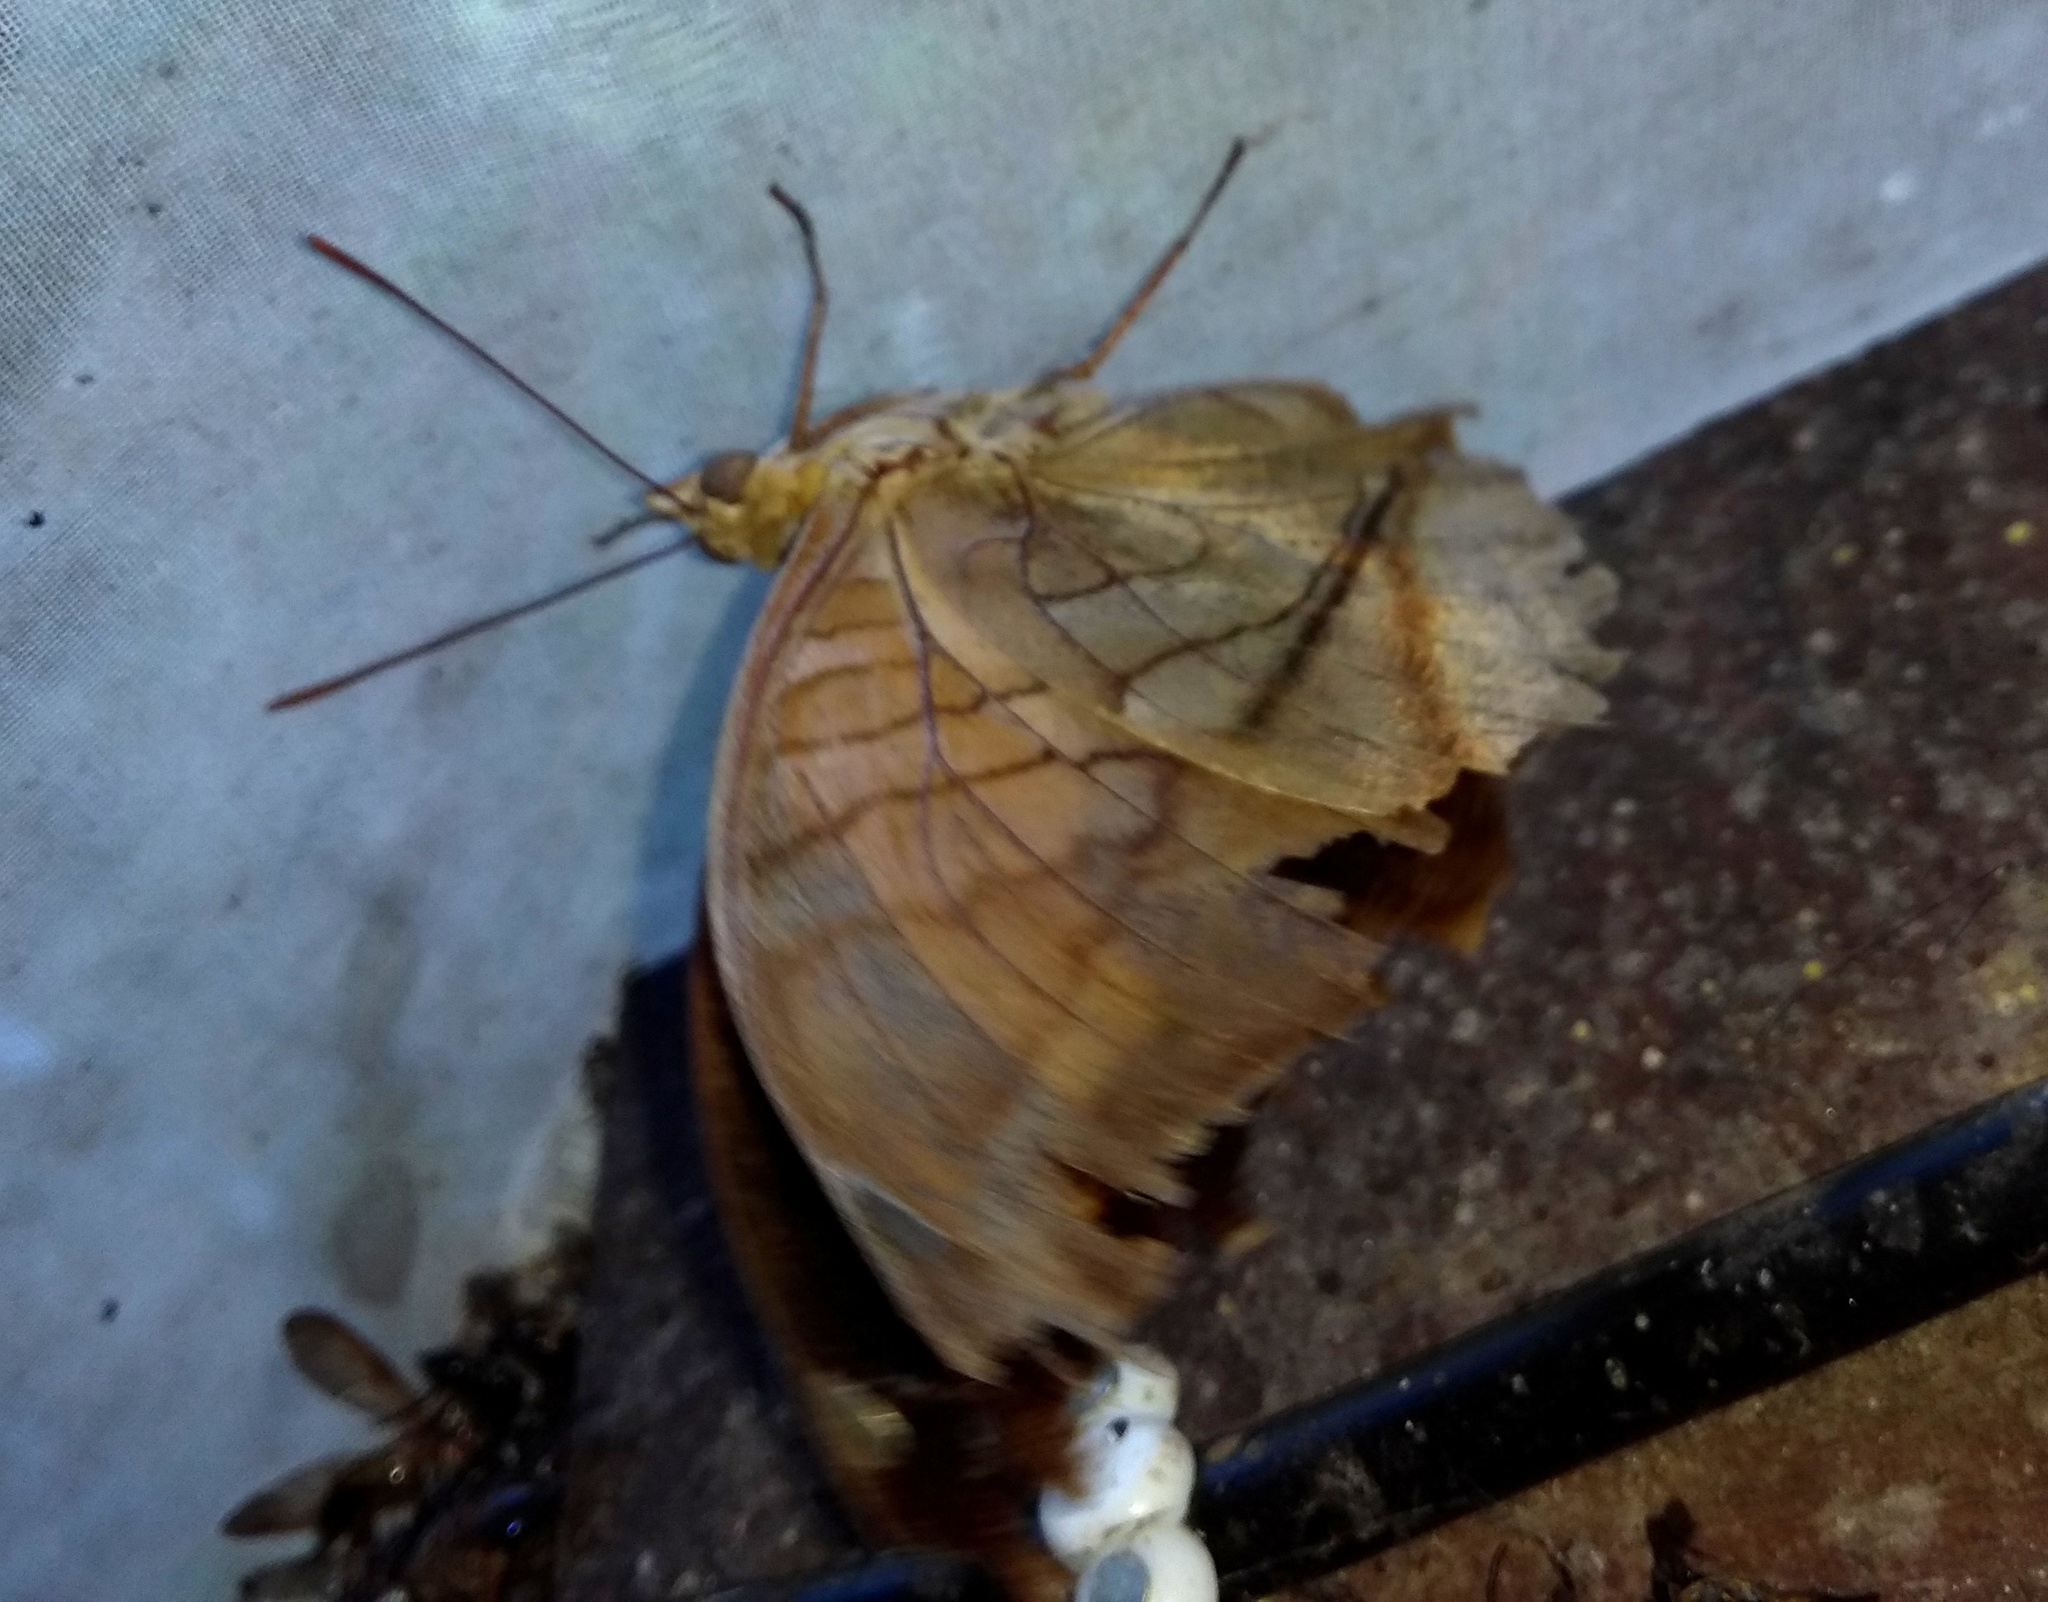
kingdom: Animalia
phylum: Arthropoda
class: Insecta
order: Lepidoptera
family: Nymphalidae
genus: Historis
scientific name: Historis odius
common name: Orion cecropian
